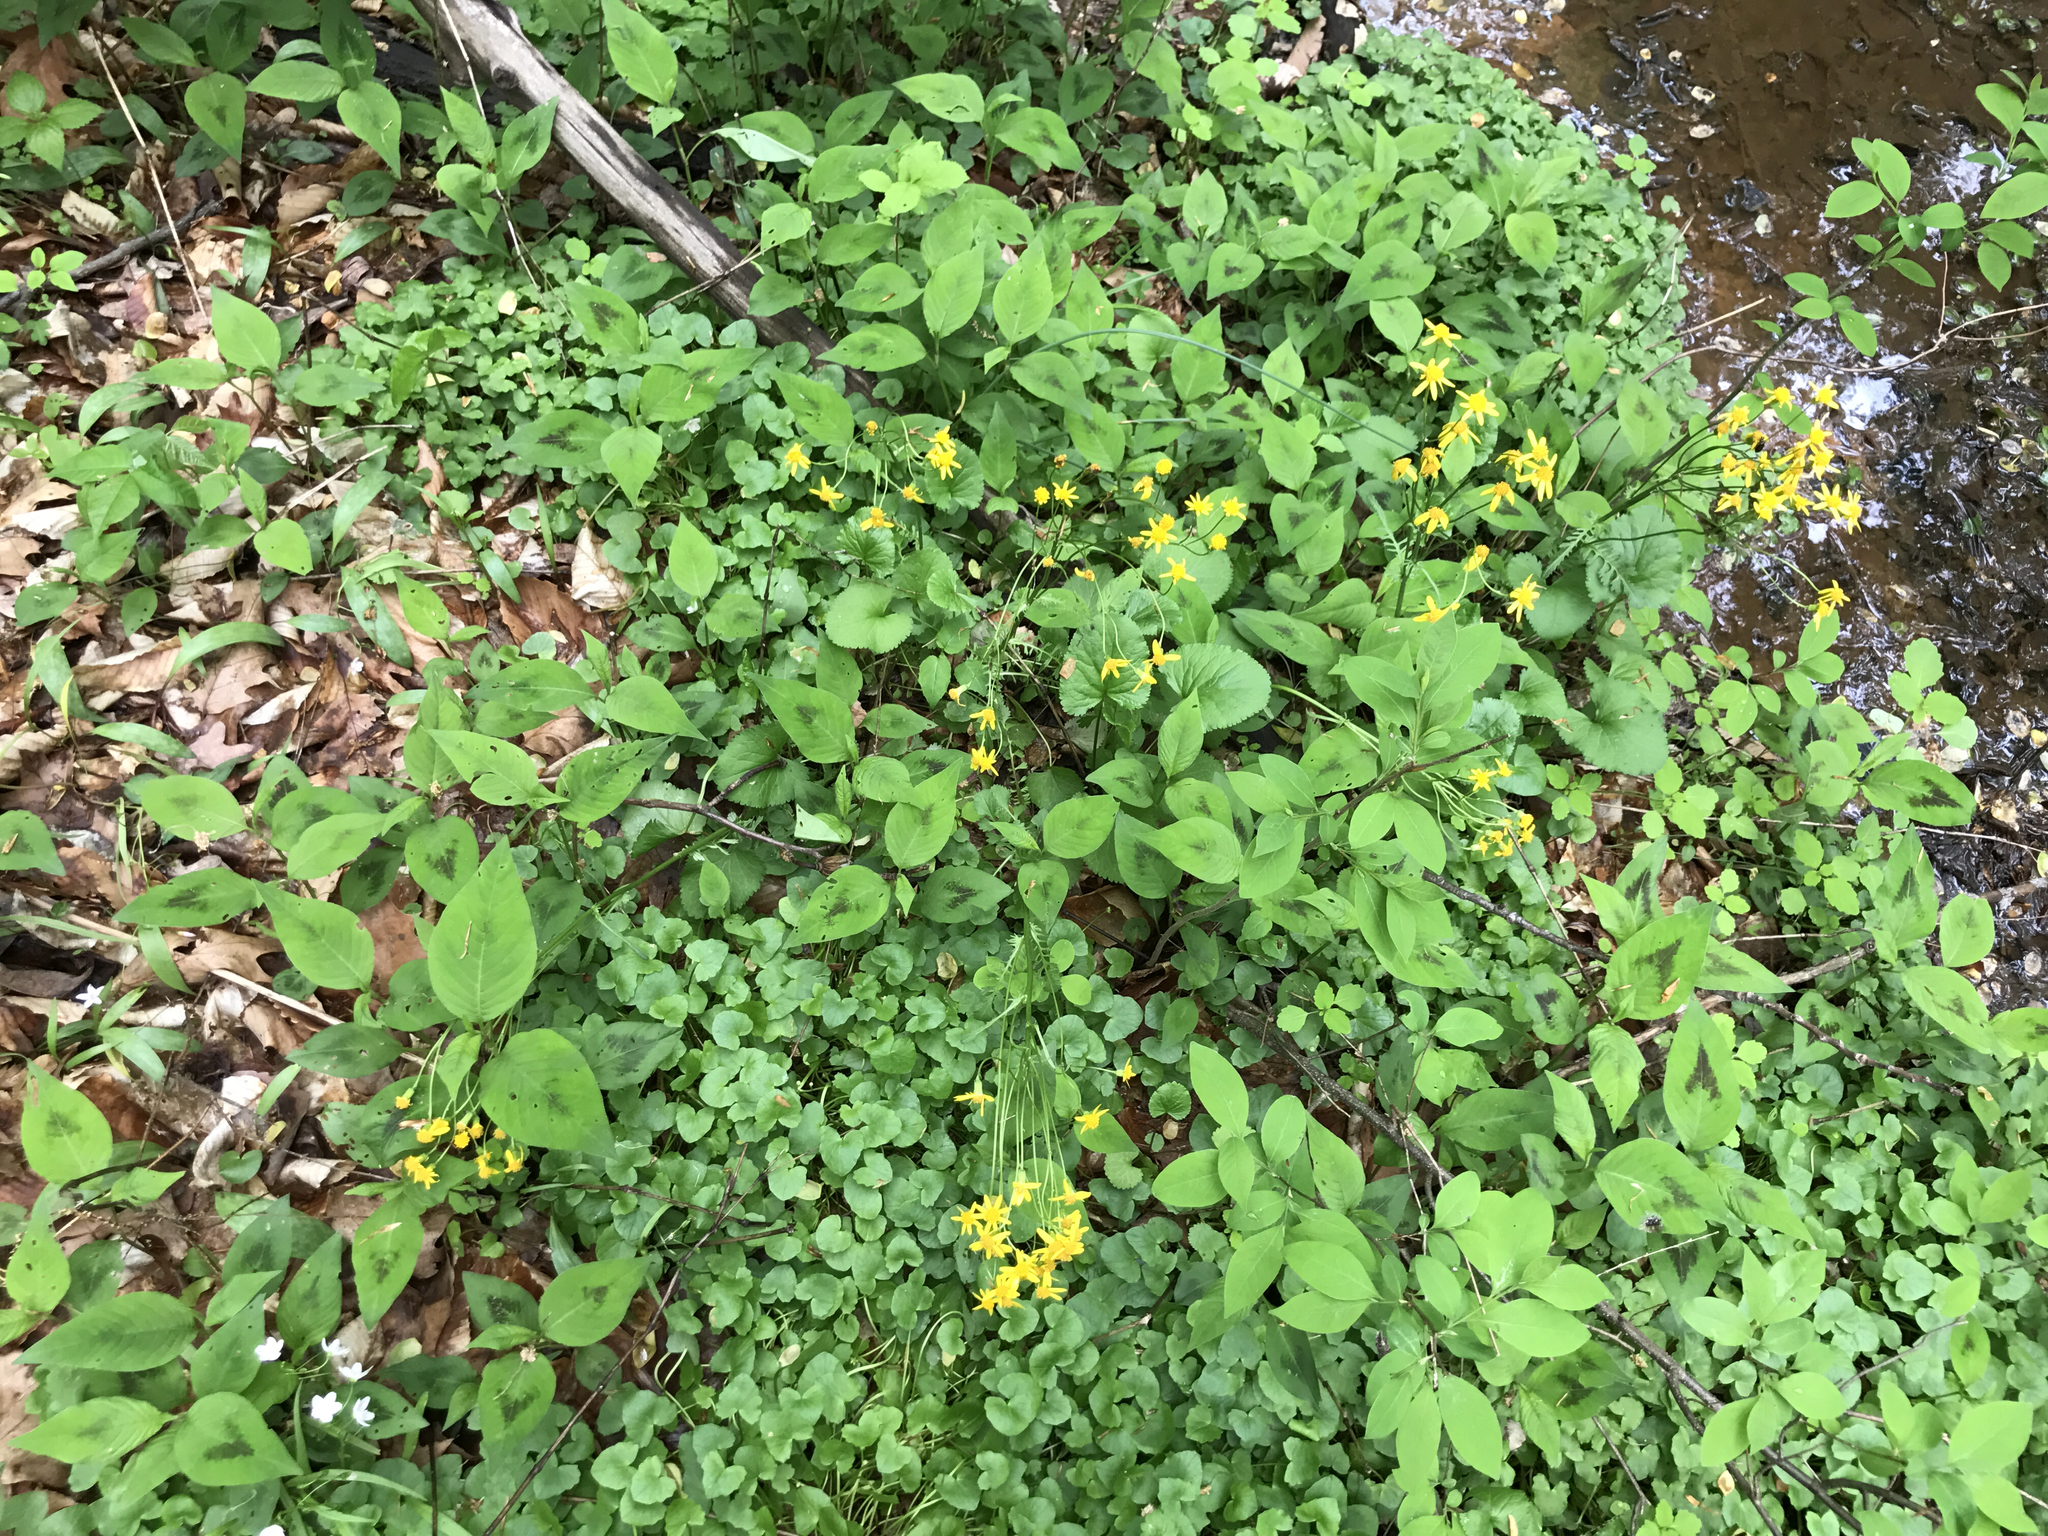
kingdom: Plantae
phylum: Tracheophyta
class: Magnoliopsida
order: Asterales
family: Asteraceae
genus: Packera
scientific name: Packera aurea
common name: Golden groundsel
